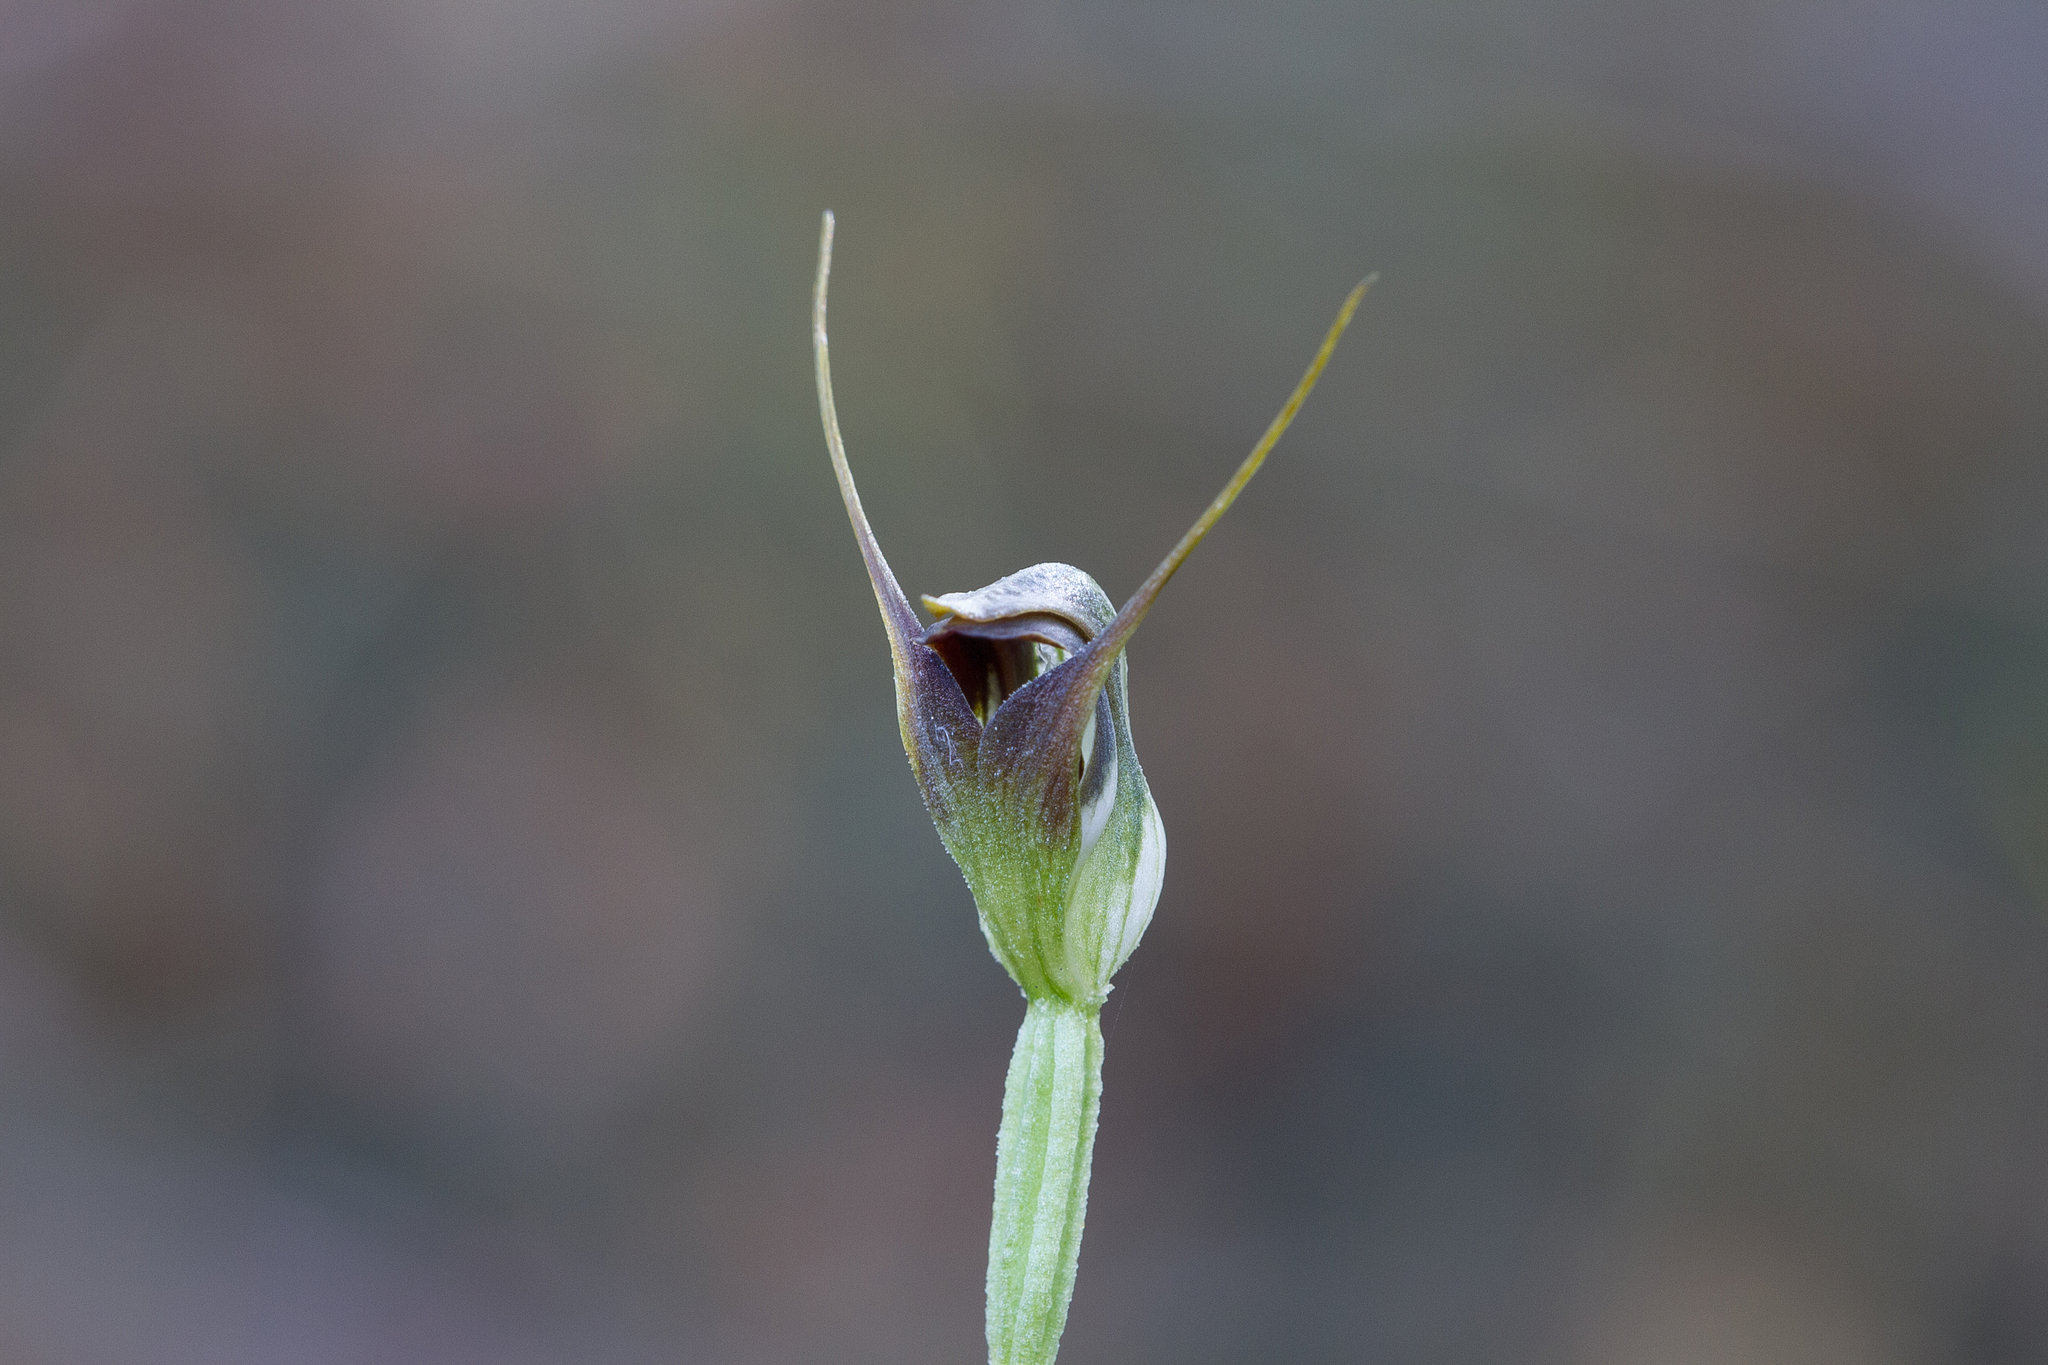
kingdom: Plantae
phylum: Tracheophyta
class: Liliopsida
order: Asparagales
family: Orchidaceae
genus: Pterostylis
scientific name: Pterostylis pedunculata
